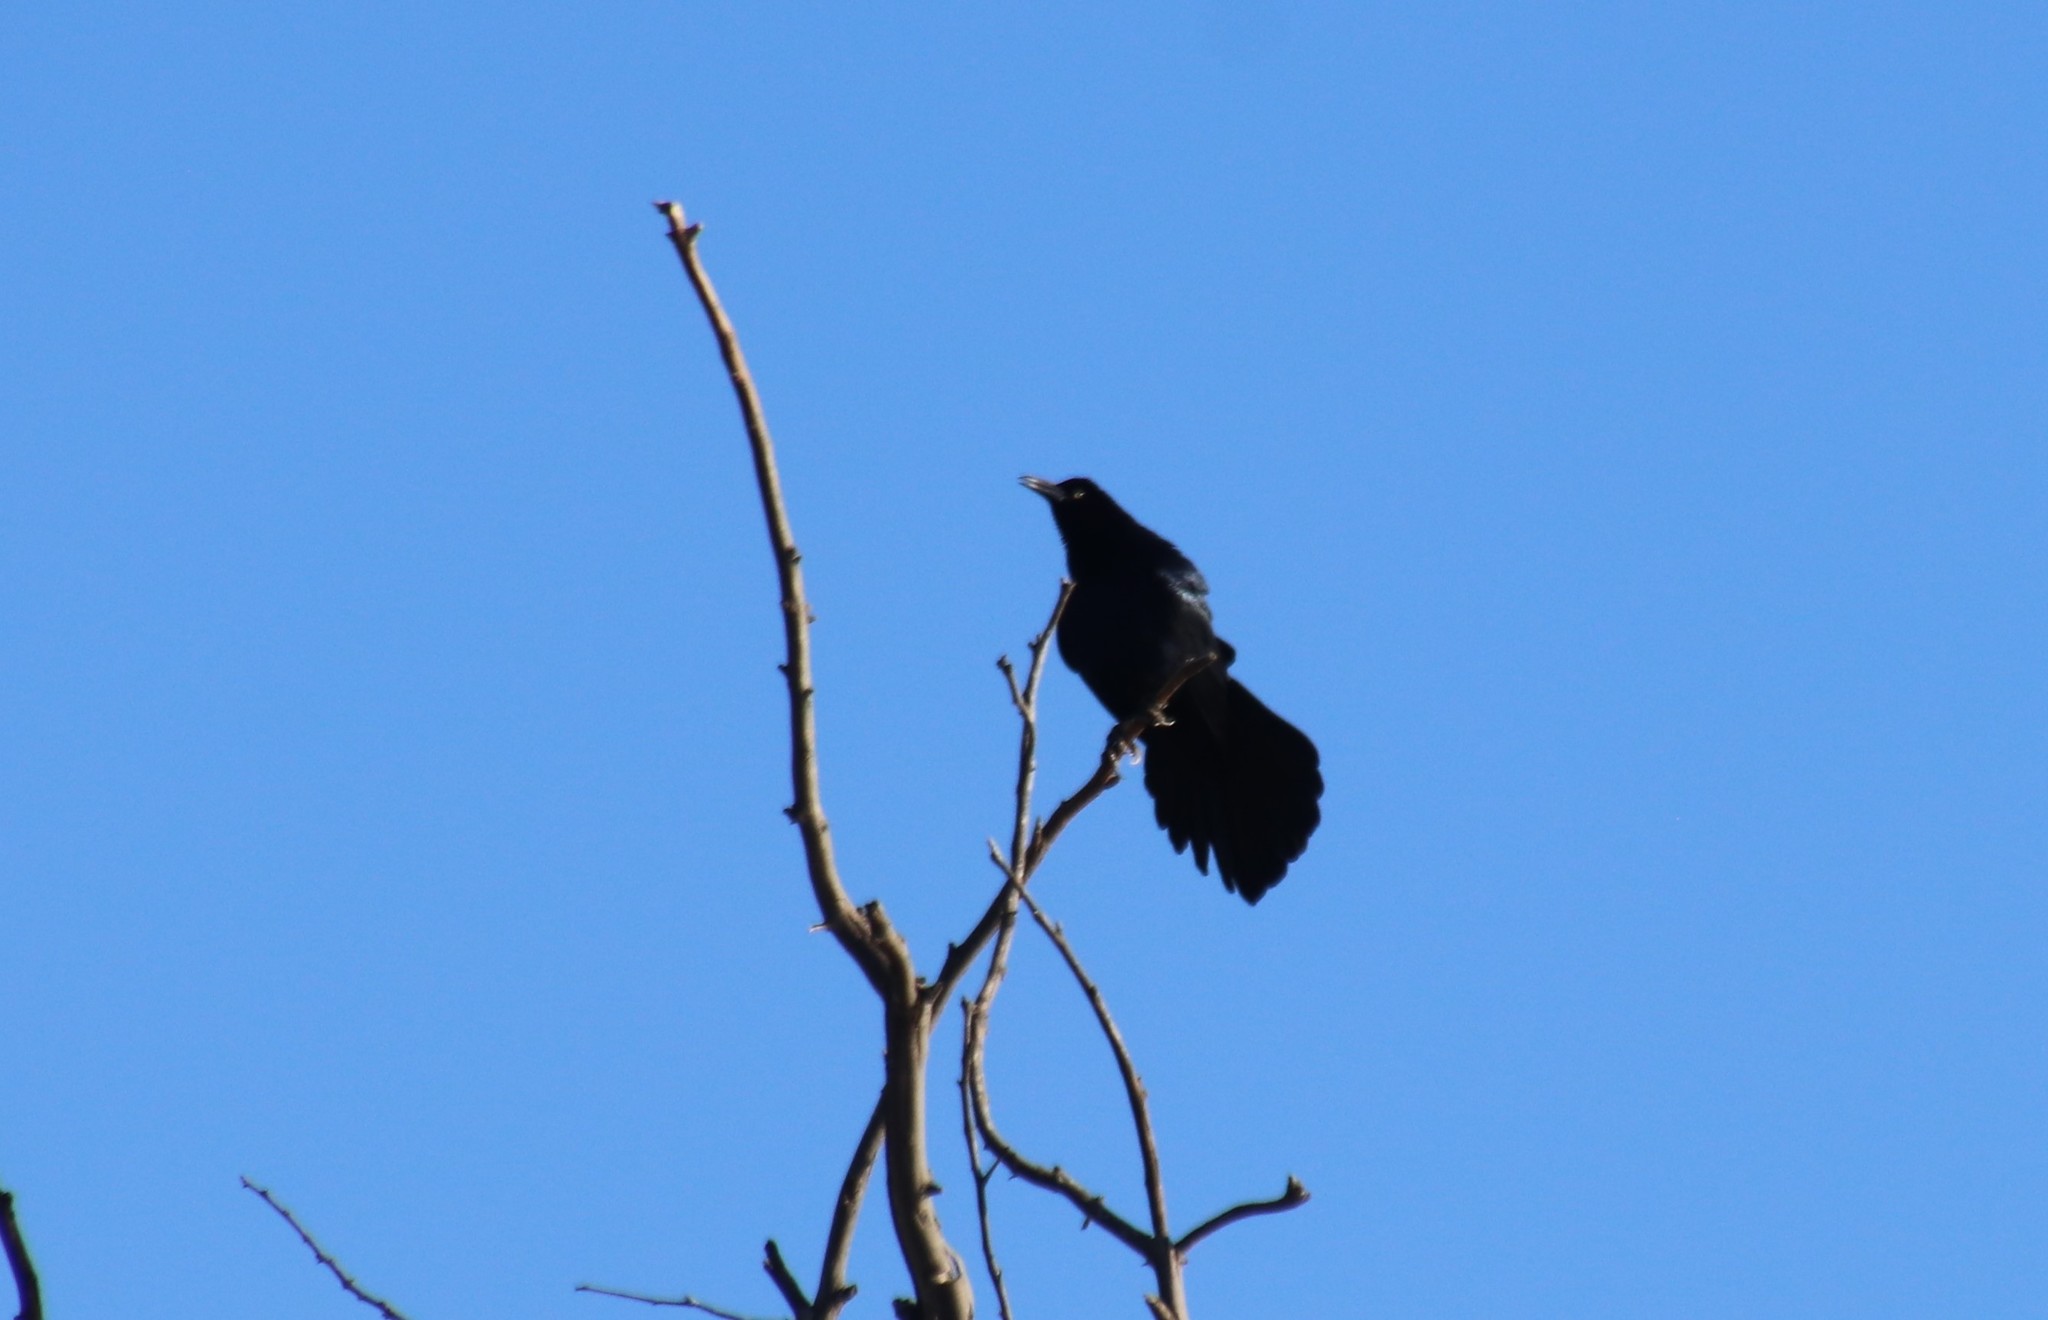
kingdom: Animalia
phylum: Chordata
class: Aves
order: Passeriformes
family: Icteridae
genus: Quiscalus
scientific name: Quiscalus mexicanus
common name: Great-tailed grackle
